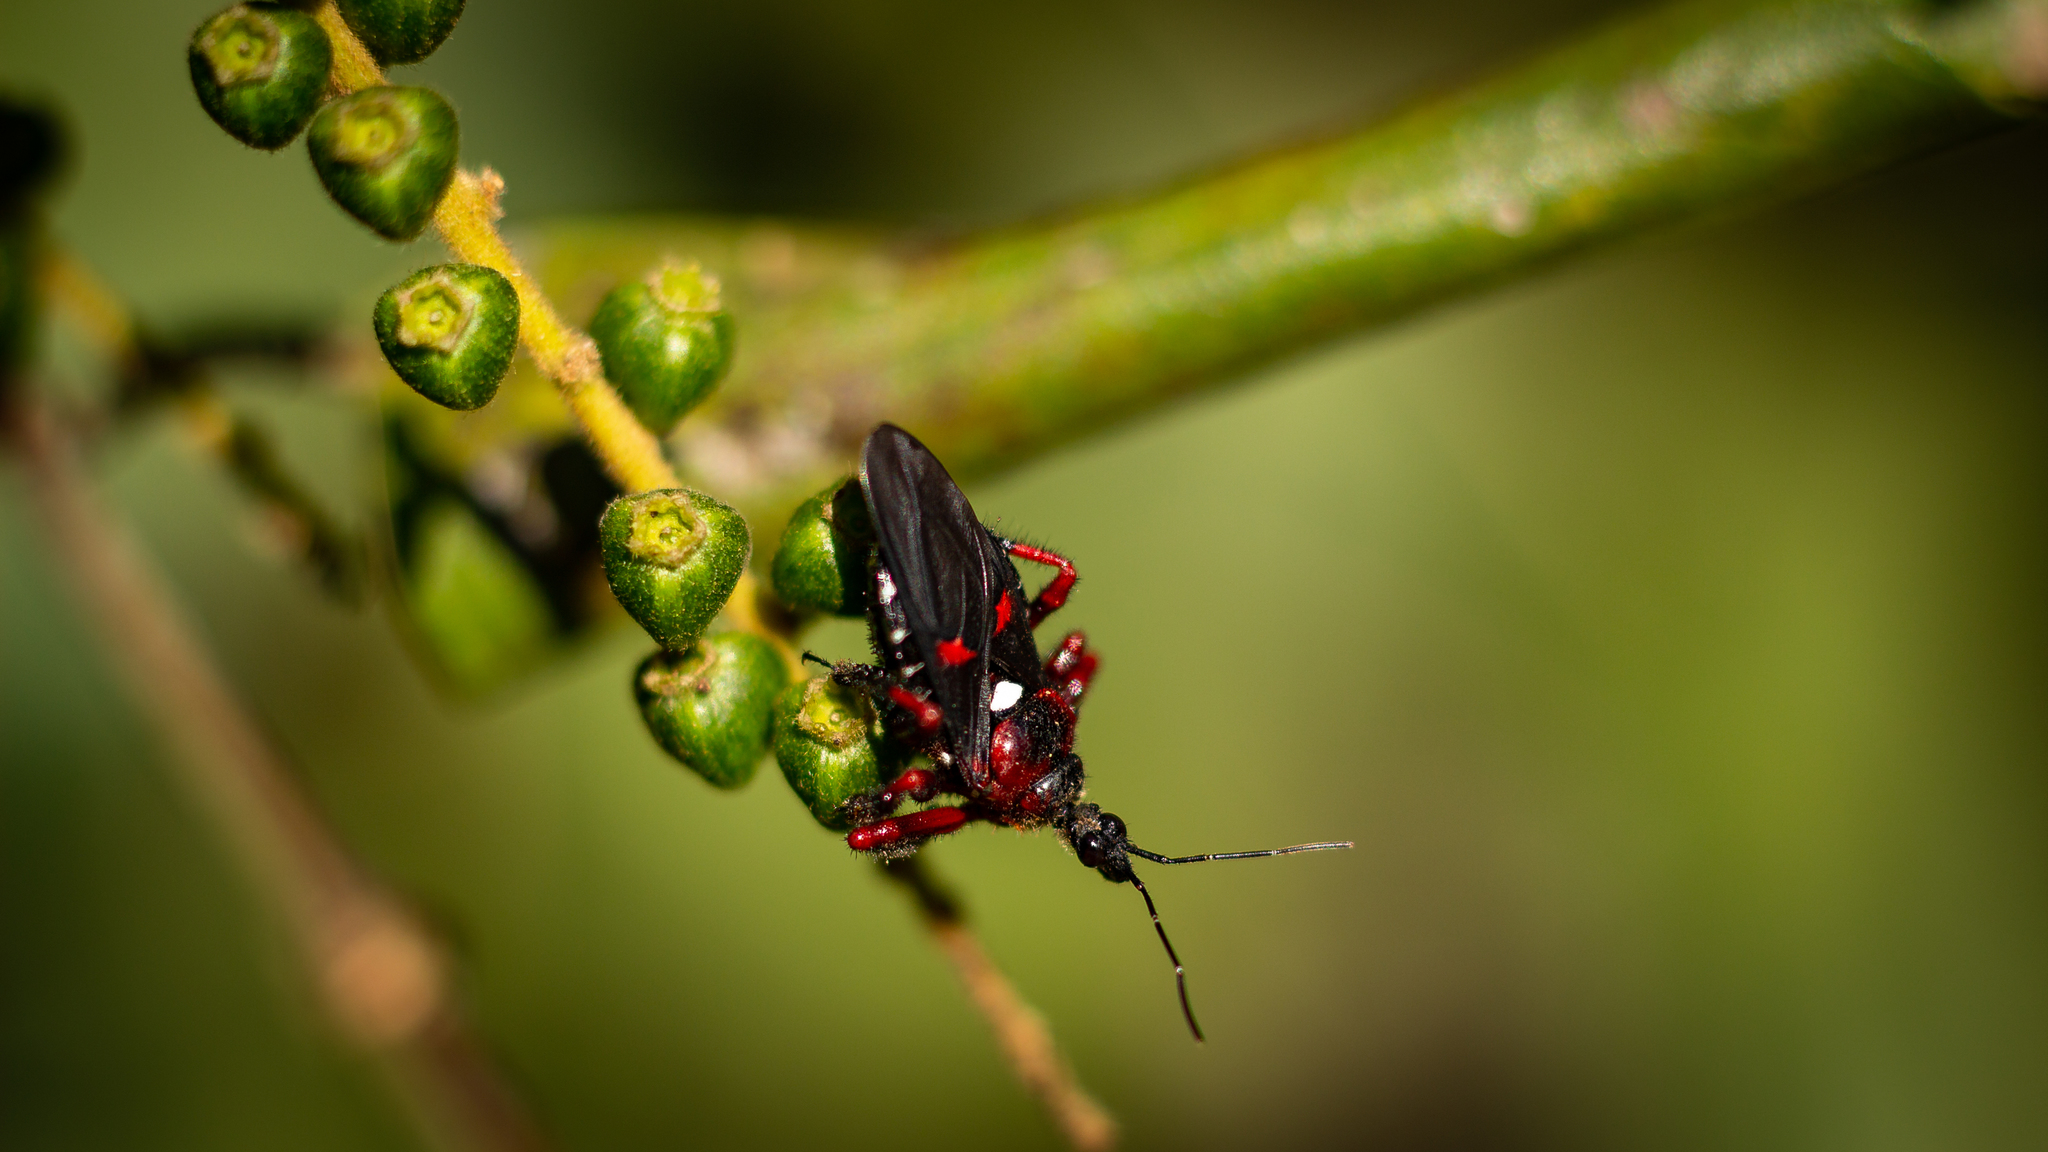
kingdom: Animalia
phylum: Arthropoda
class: Insecta
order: Hemiptera
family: Reduviidae
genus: Apiomerus
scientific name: Apiomerus erythromelas
